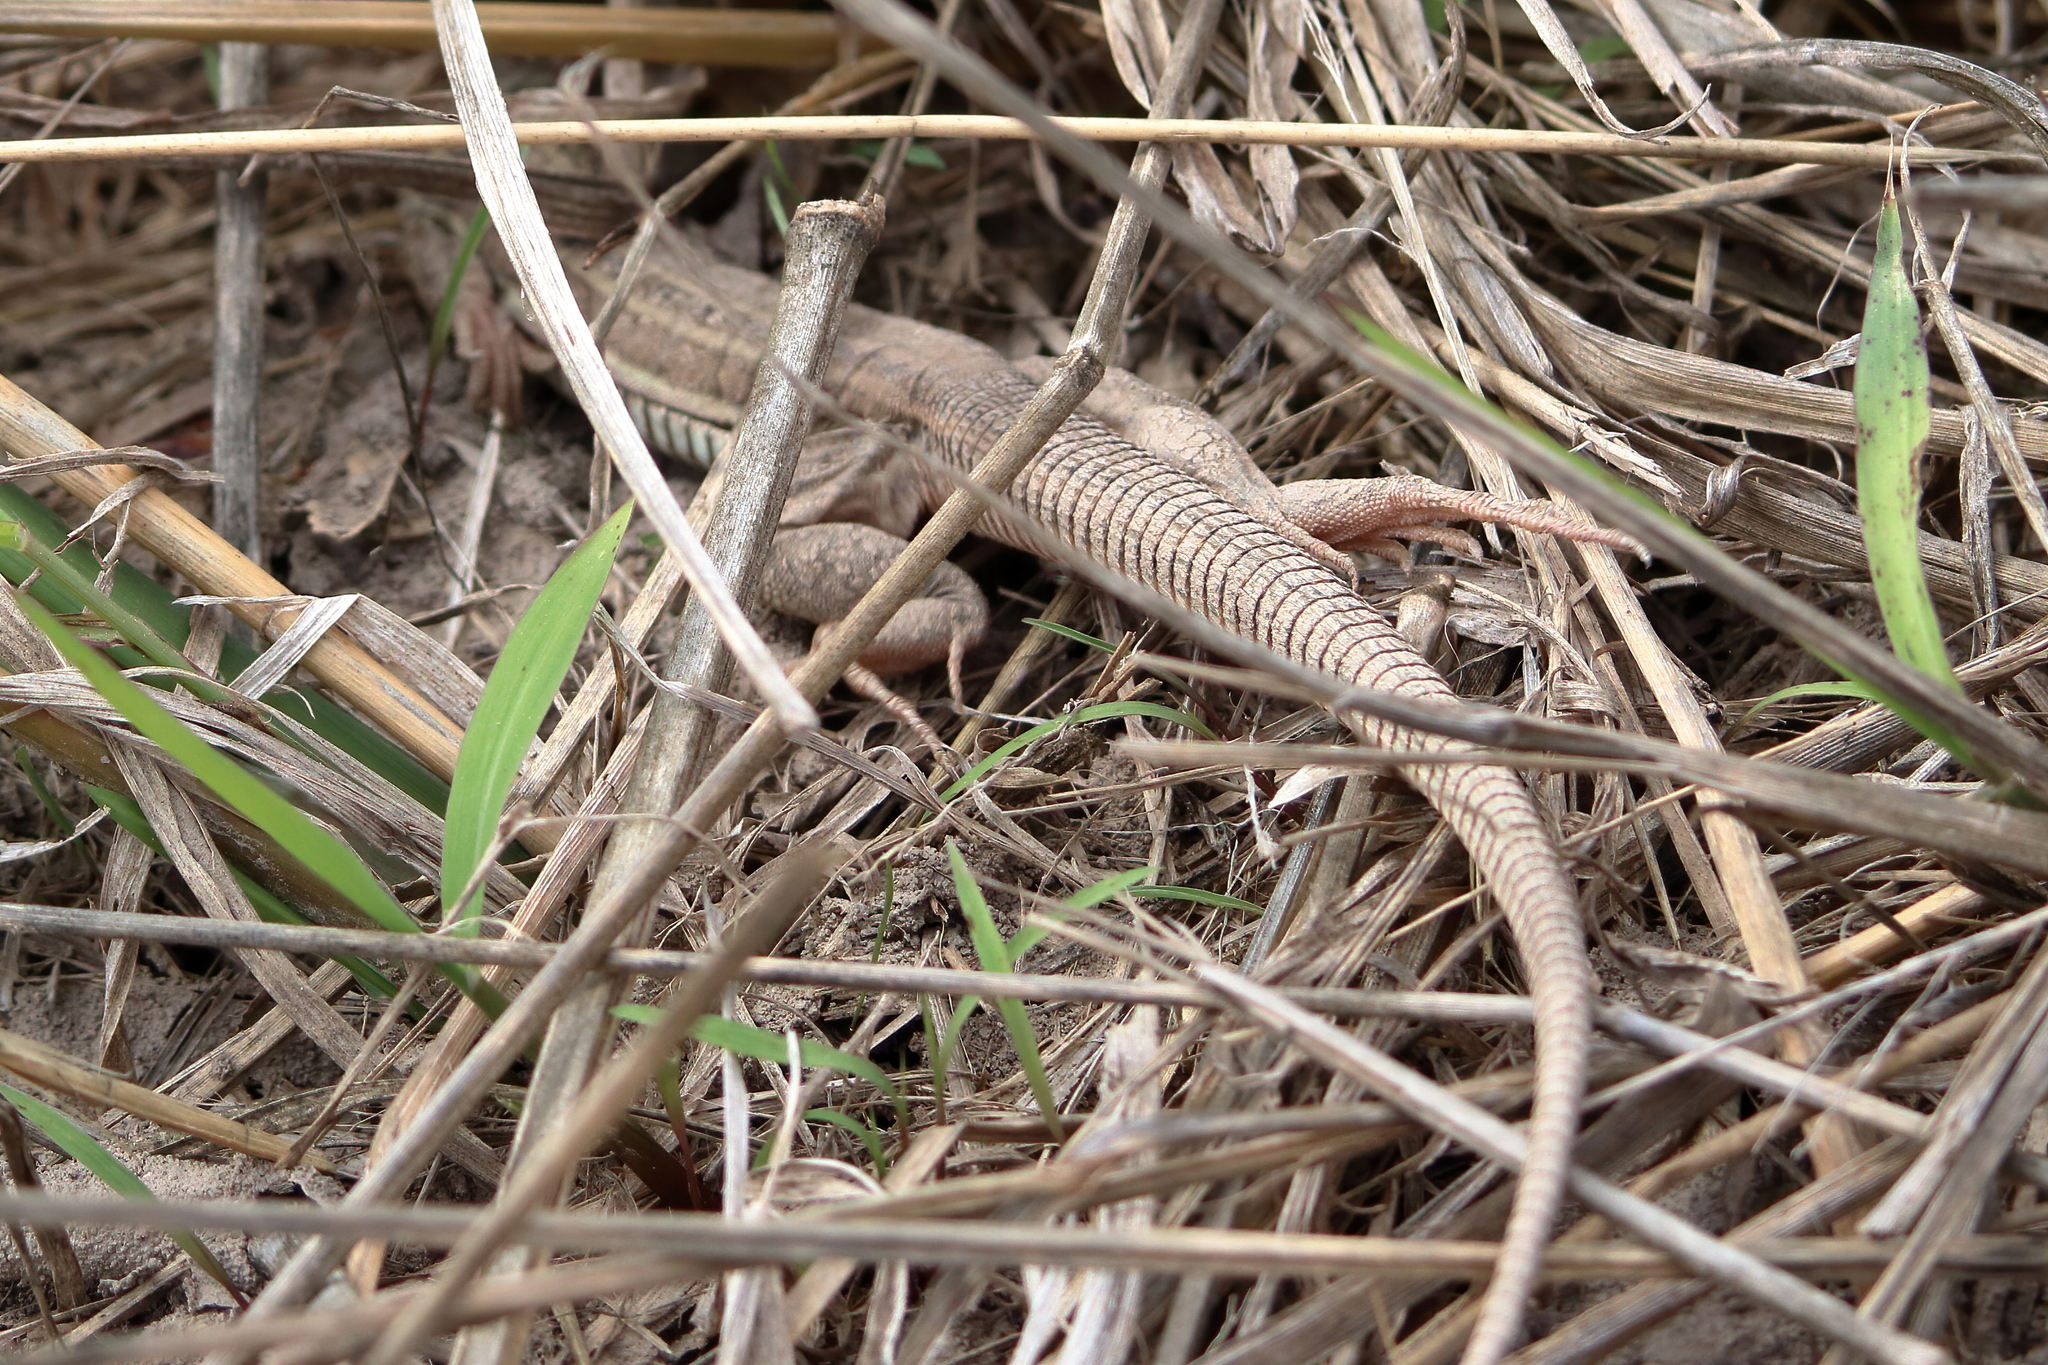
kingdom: Animalia
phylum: Chordata
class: Squamata
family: Teiidae
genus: Aspidoscelis
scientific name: Aspidoscelis gularis
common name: Eastern spotted whiptail
